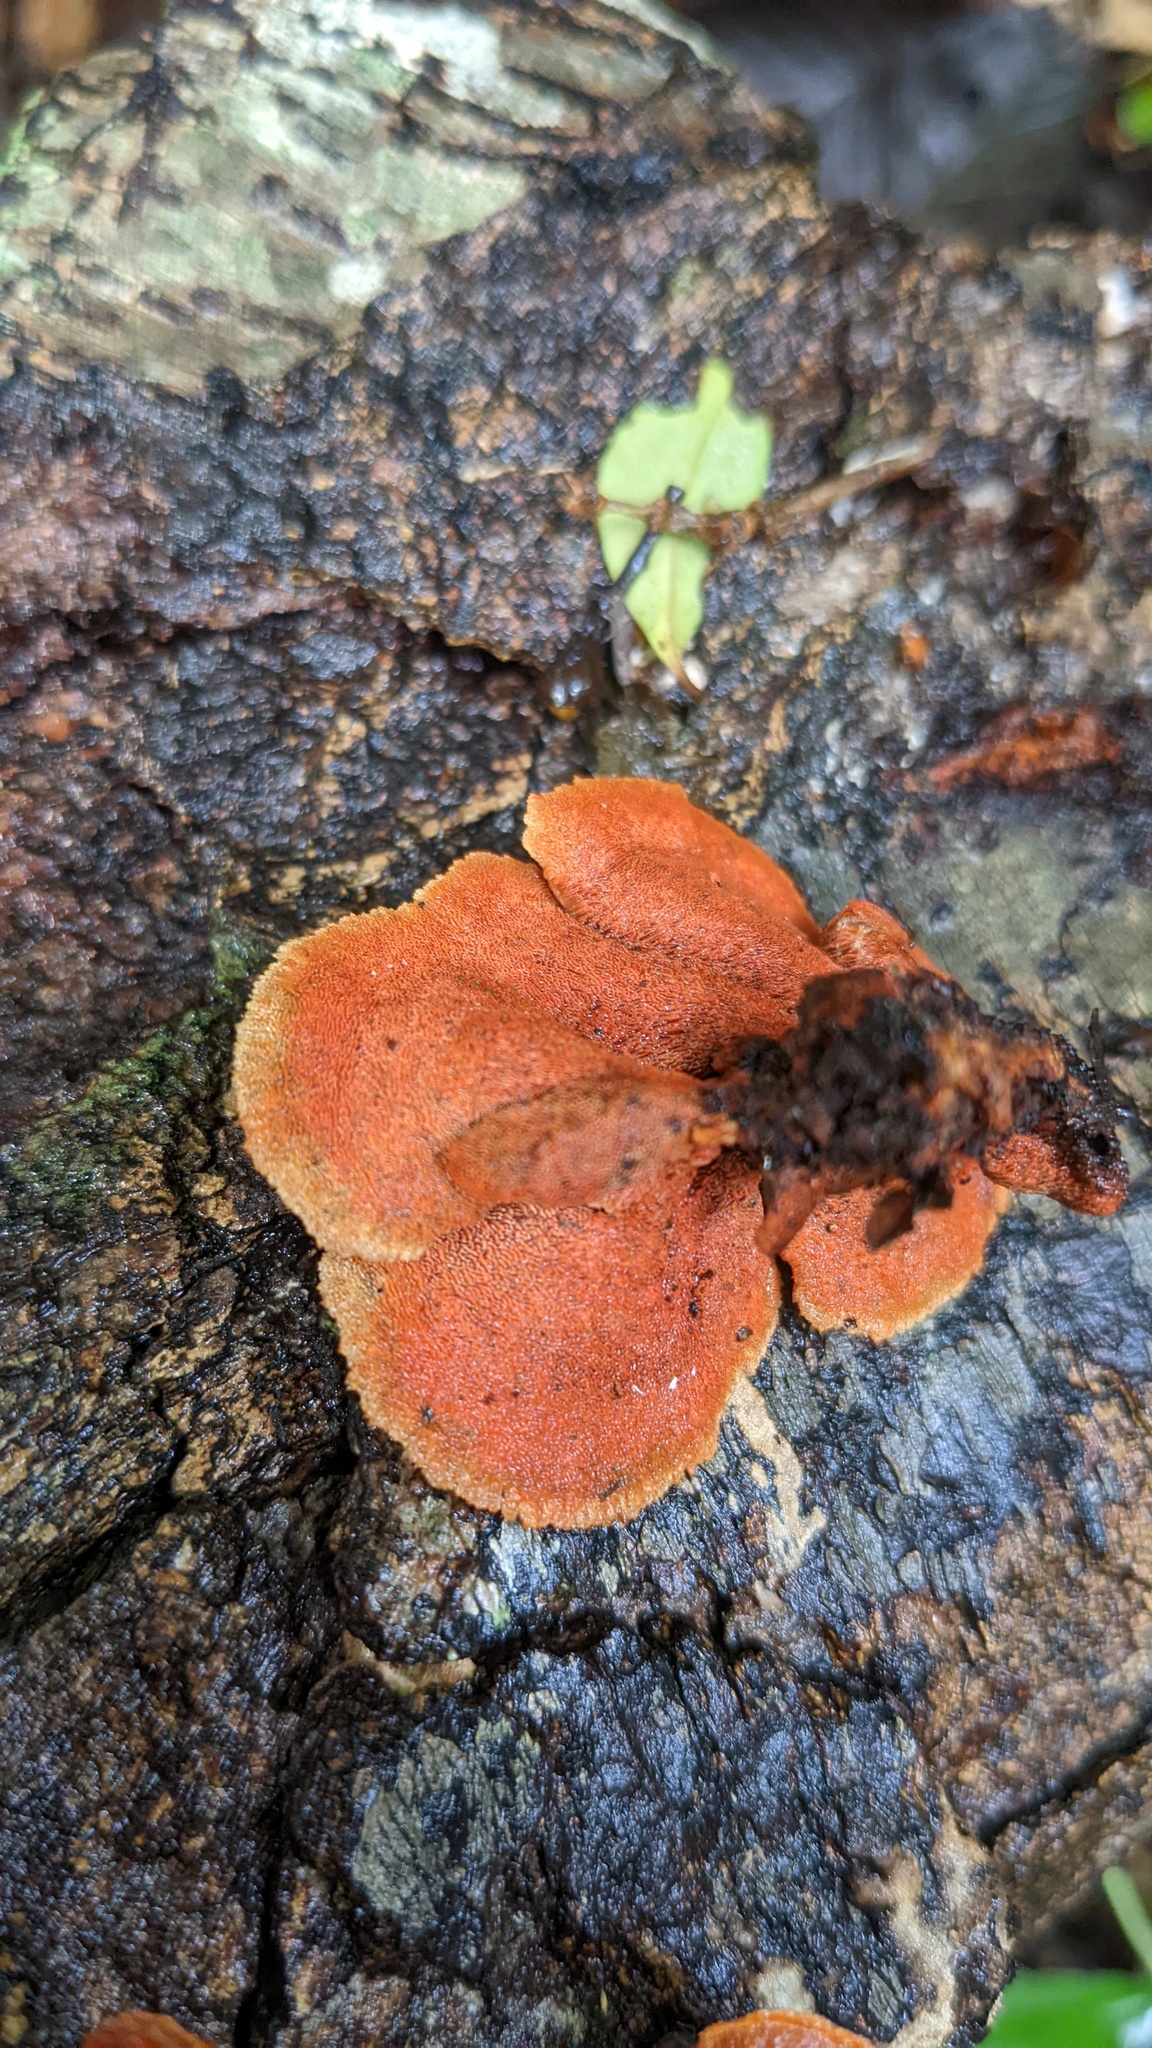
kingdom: Fungi
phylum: Basidiomycota
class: Agaricomycetes
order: Polyporales
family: Polyporaceae
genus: Trametes
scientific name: Trametes coccinea
